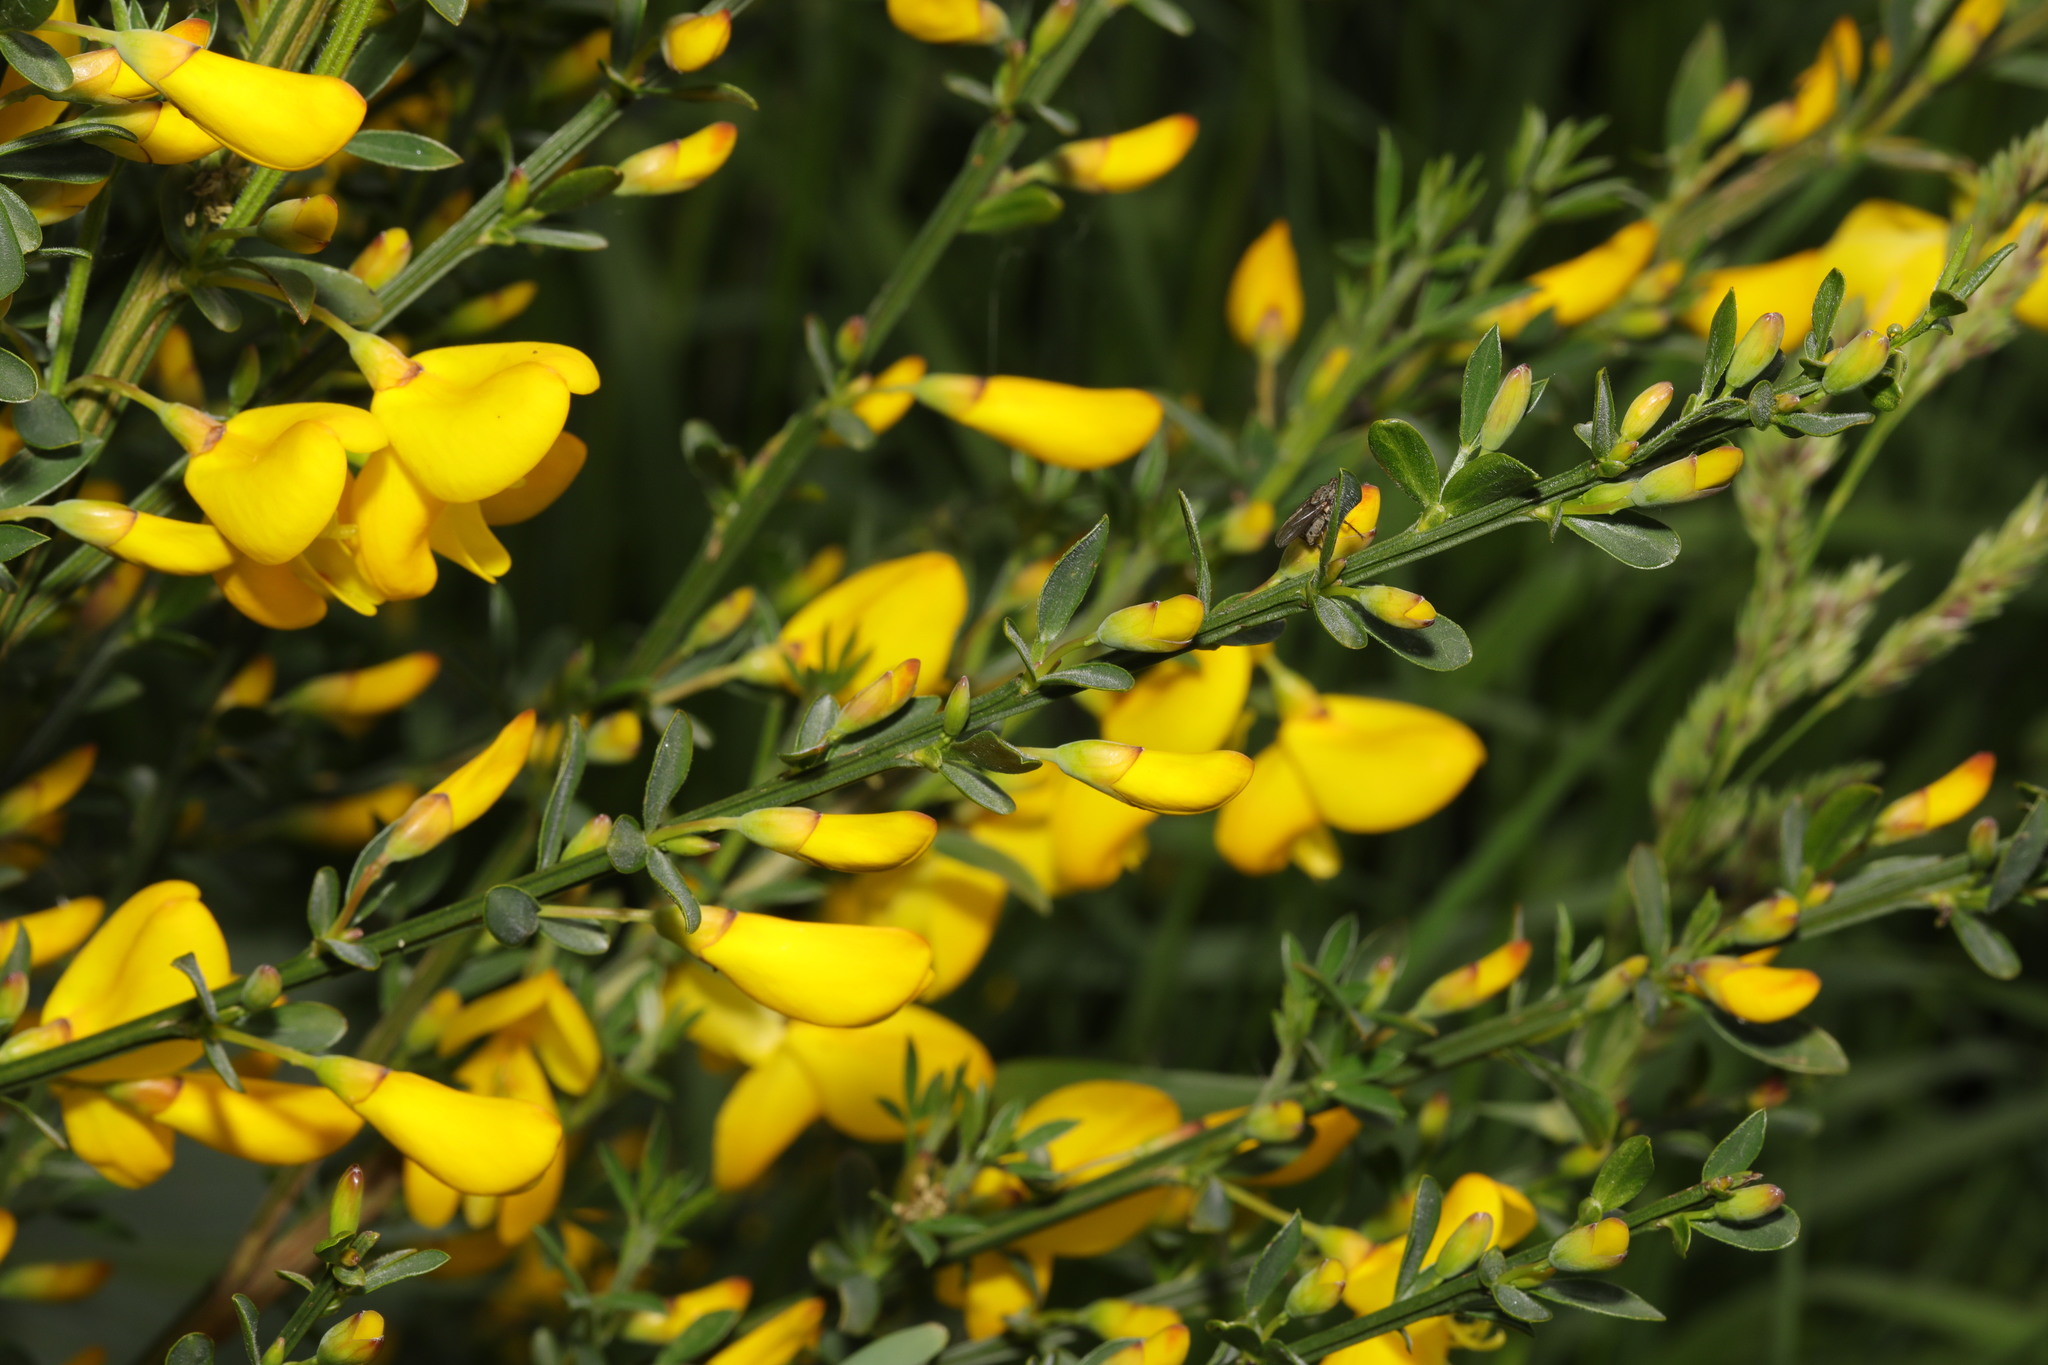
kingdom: Plantae
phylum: Tracheophyta
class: Magnoliopsida
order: Fabales
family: Fabaceae
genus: Cytisus
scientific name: Cytisus scoparius
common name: Scotch broom
